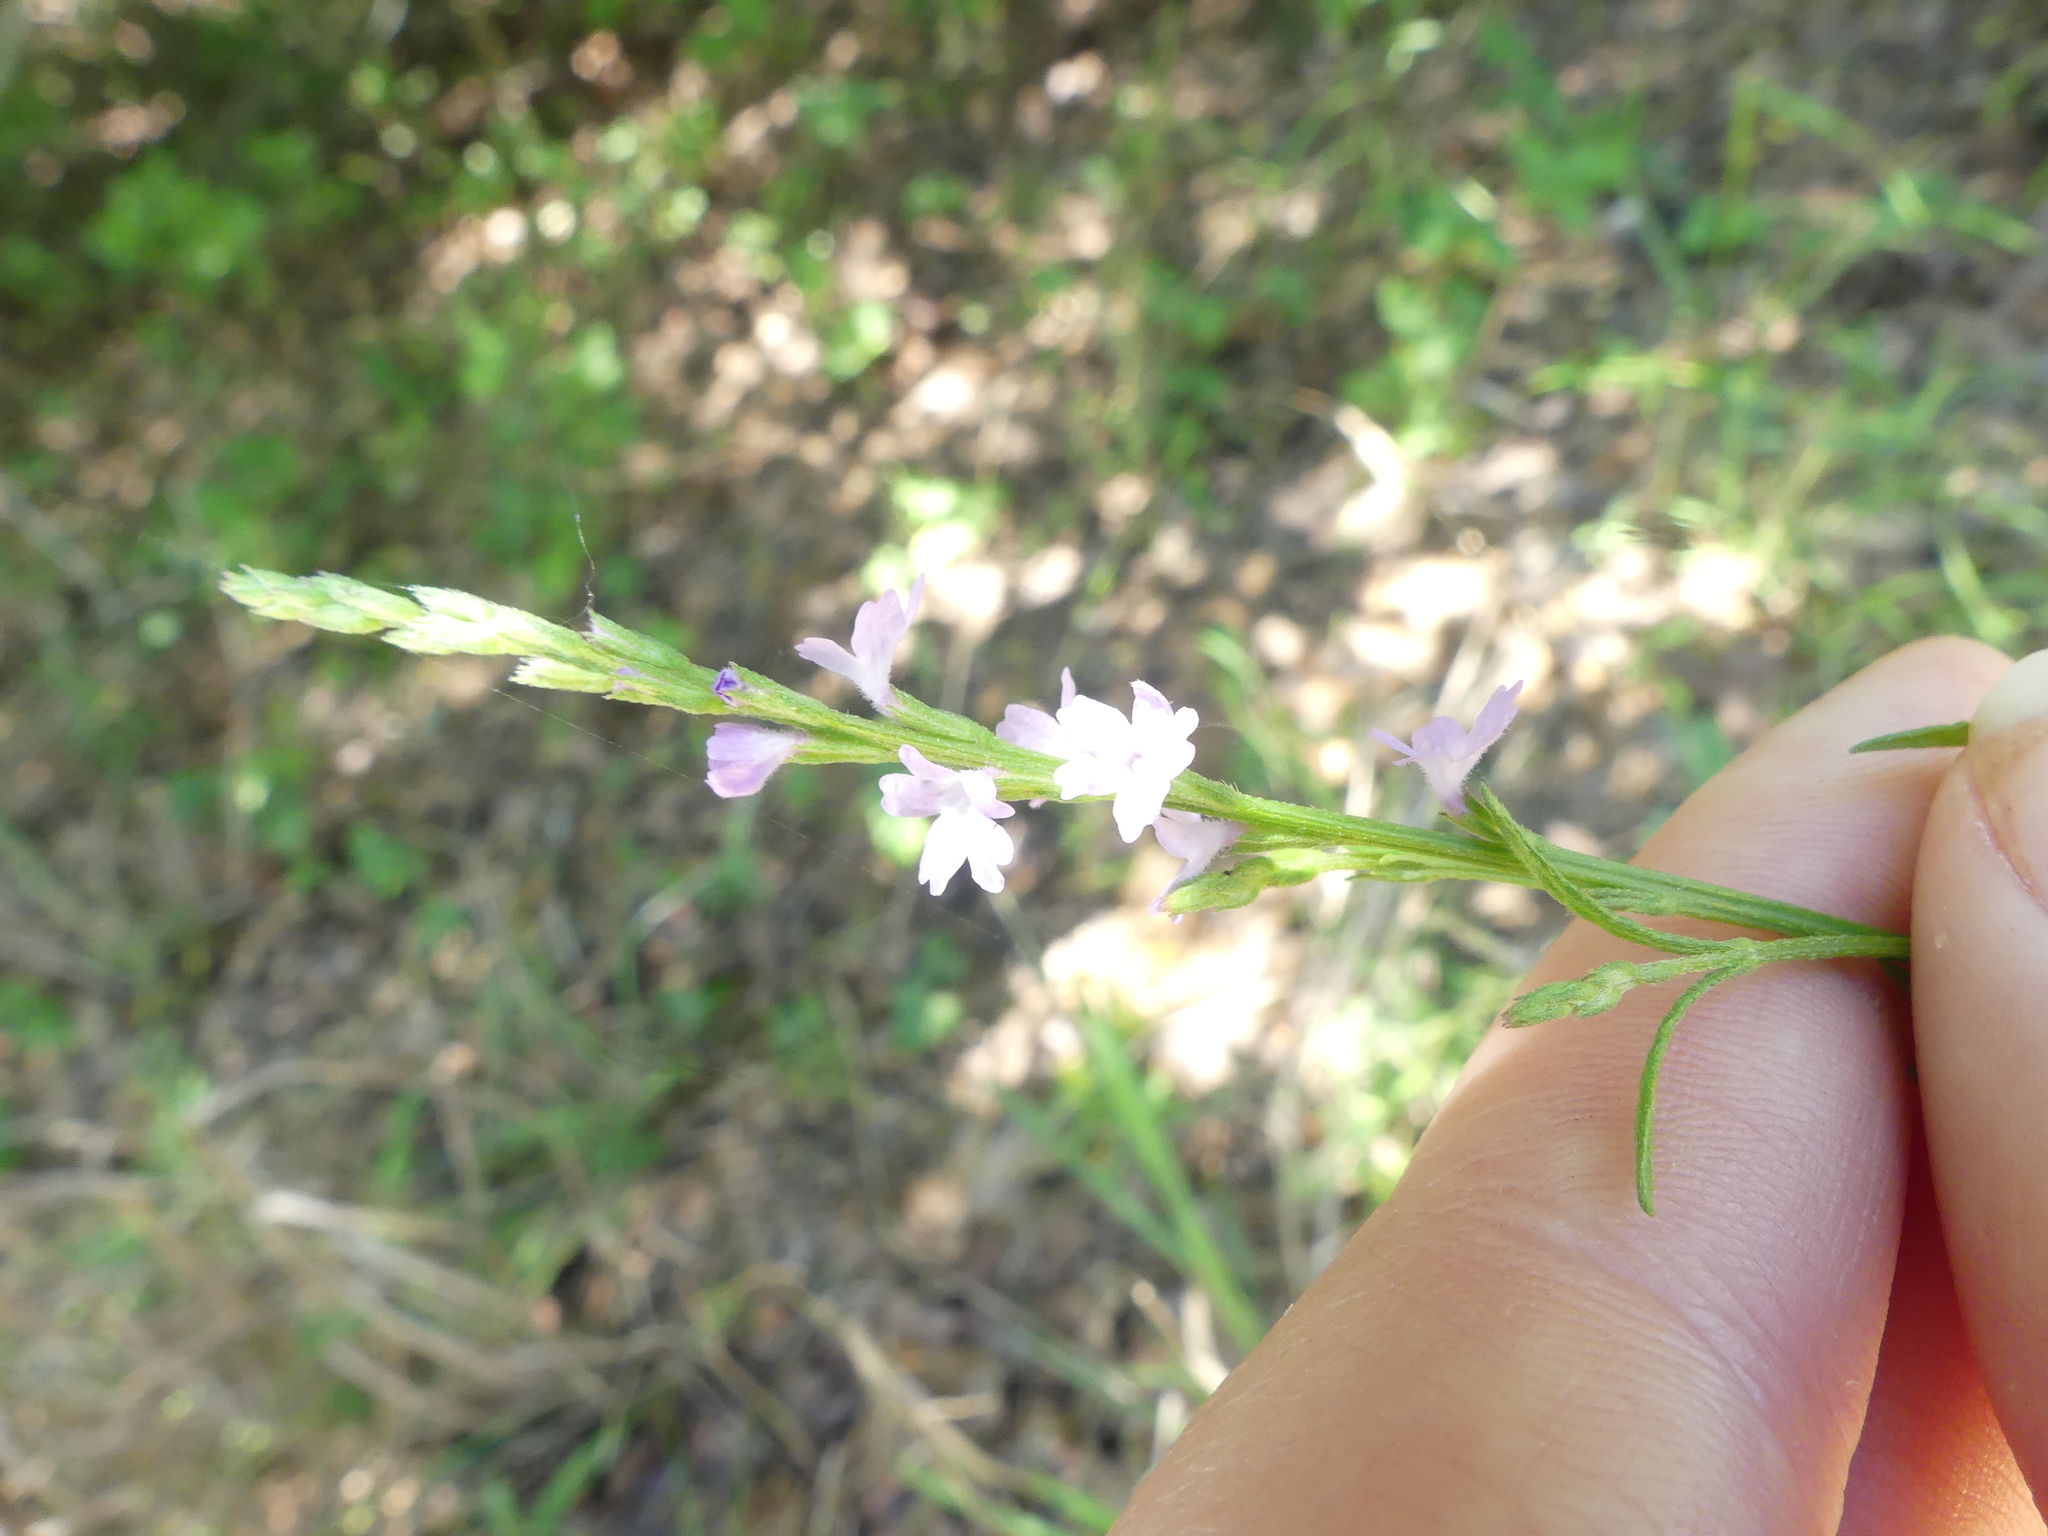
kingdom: Plantae
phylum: Tracheophyta
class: Magnoliopsida
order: Lamiales
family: Verbenaceae
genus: Verbena
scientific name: Verbena halei
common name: Texas vervain
